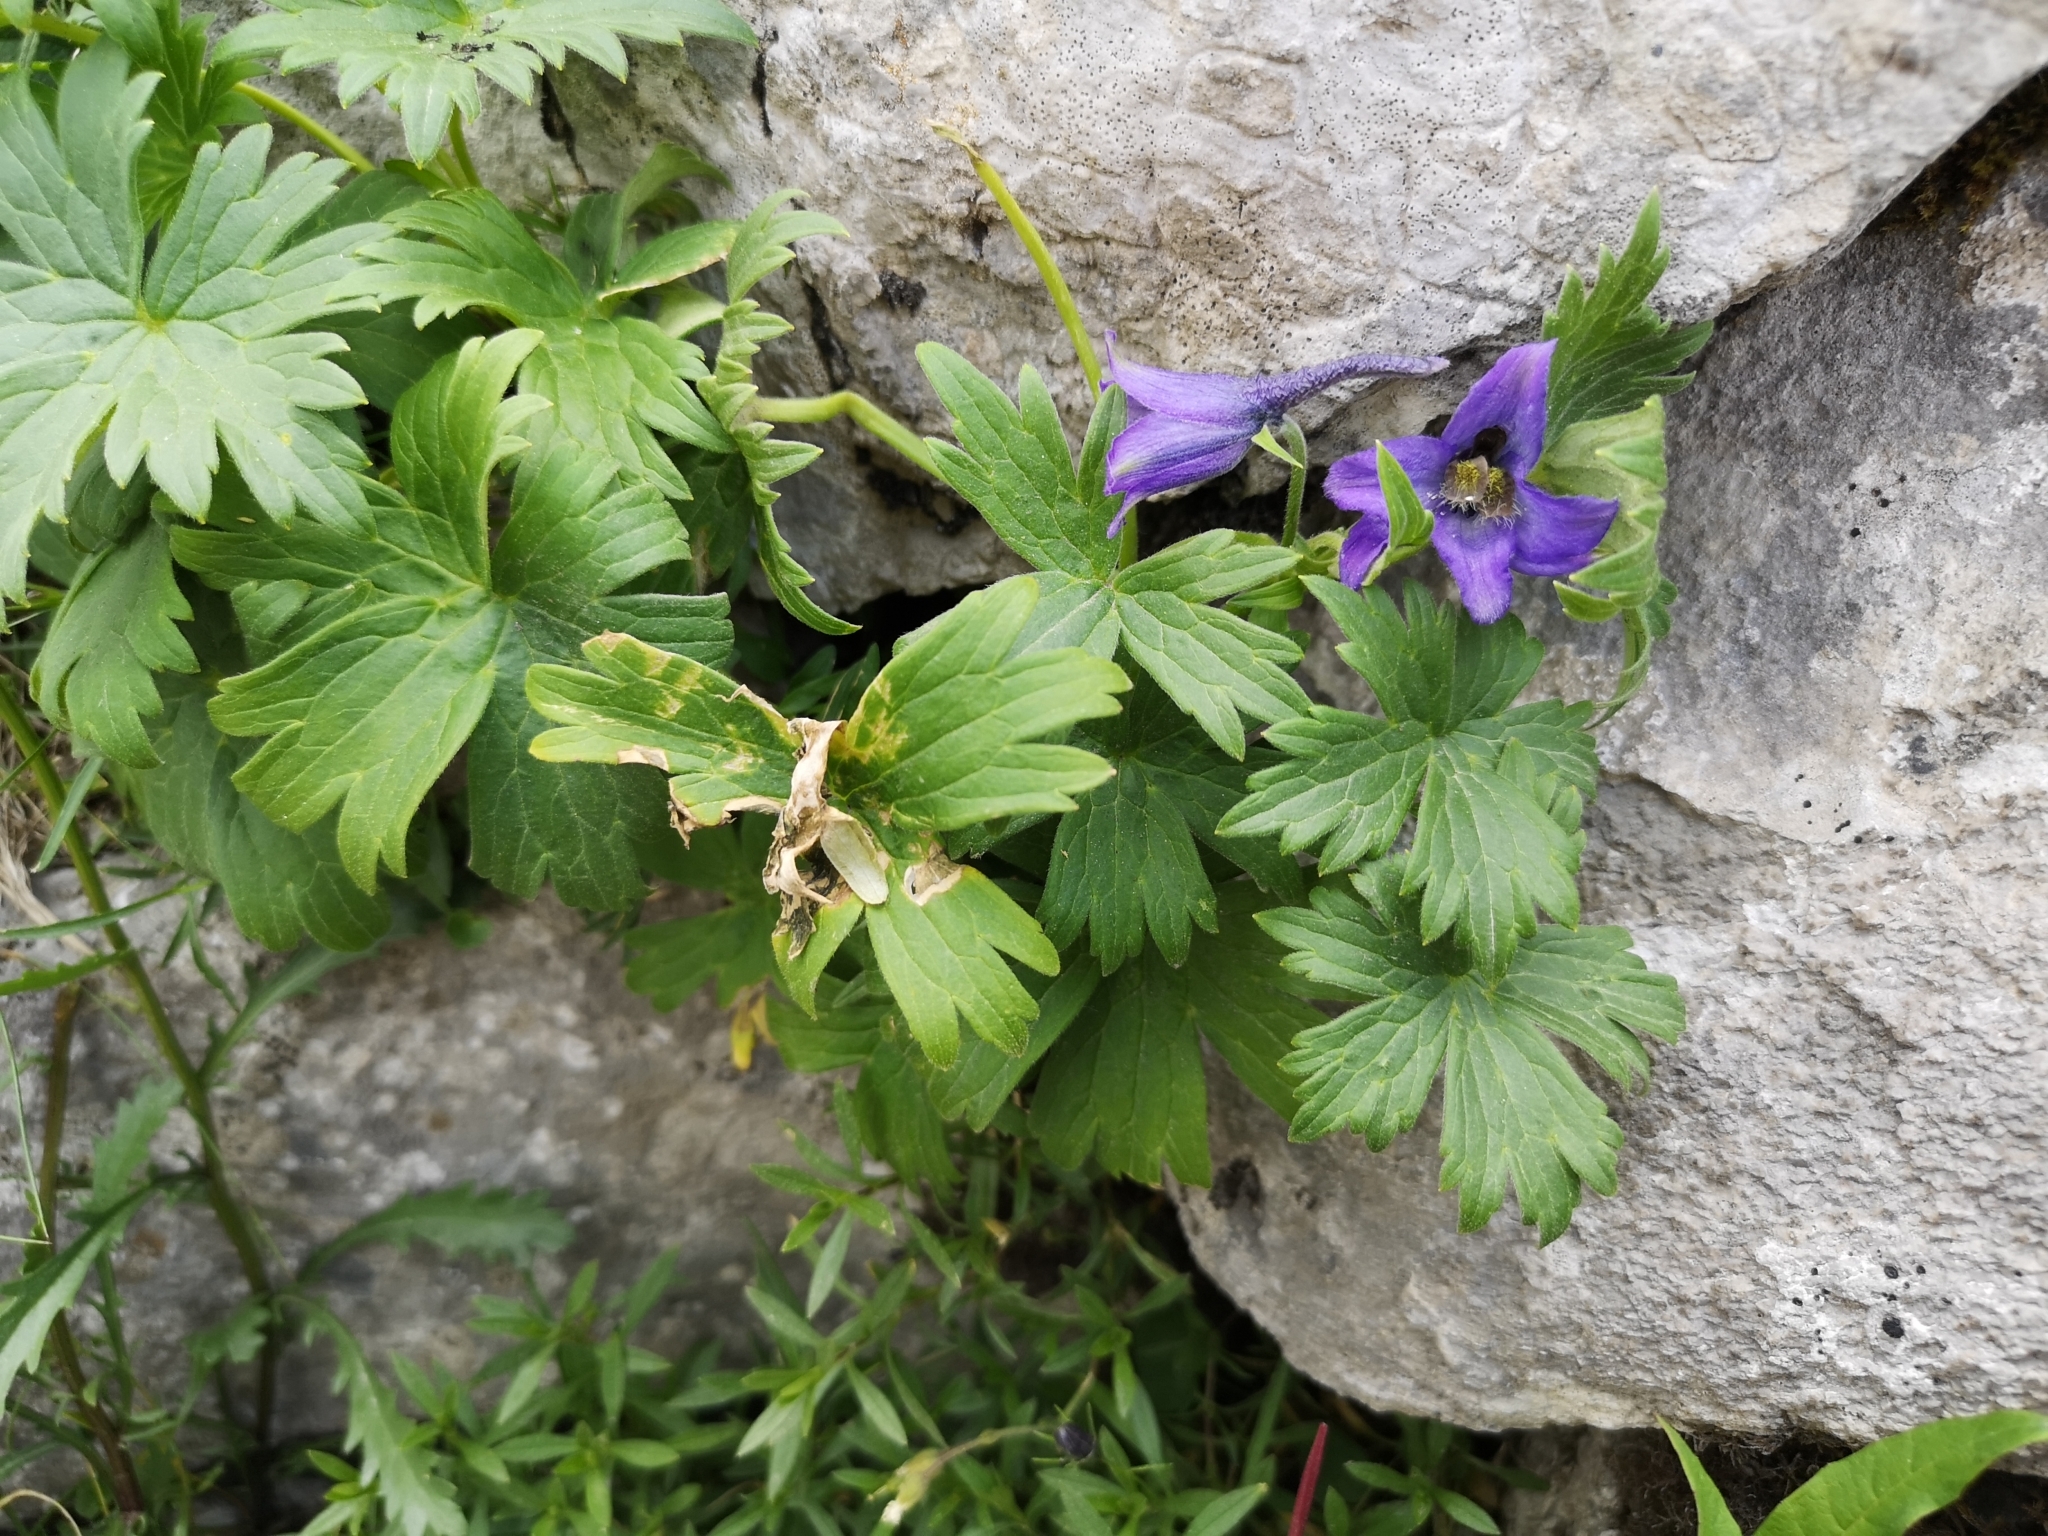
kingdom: Plantae
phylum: Tracheophyta
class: Magnoliopsida
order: Ranunculales
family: Ranunculaceae
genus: Delphinium
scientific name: Delphinium oxysepalum
